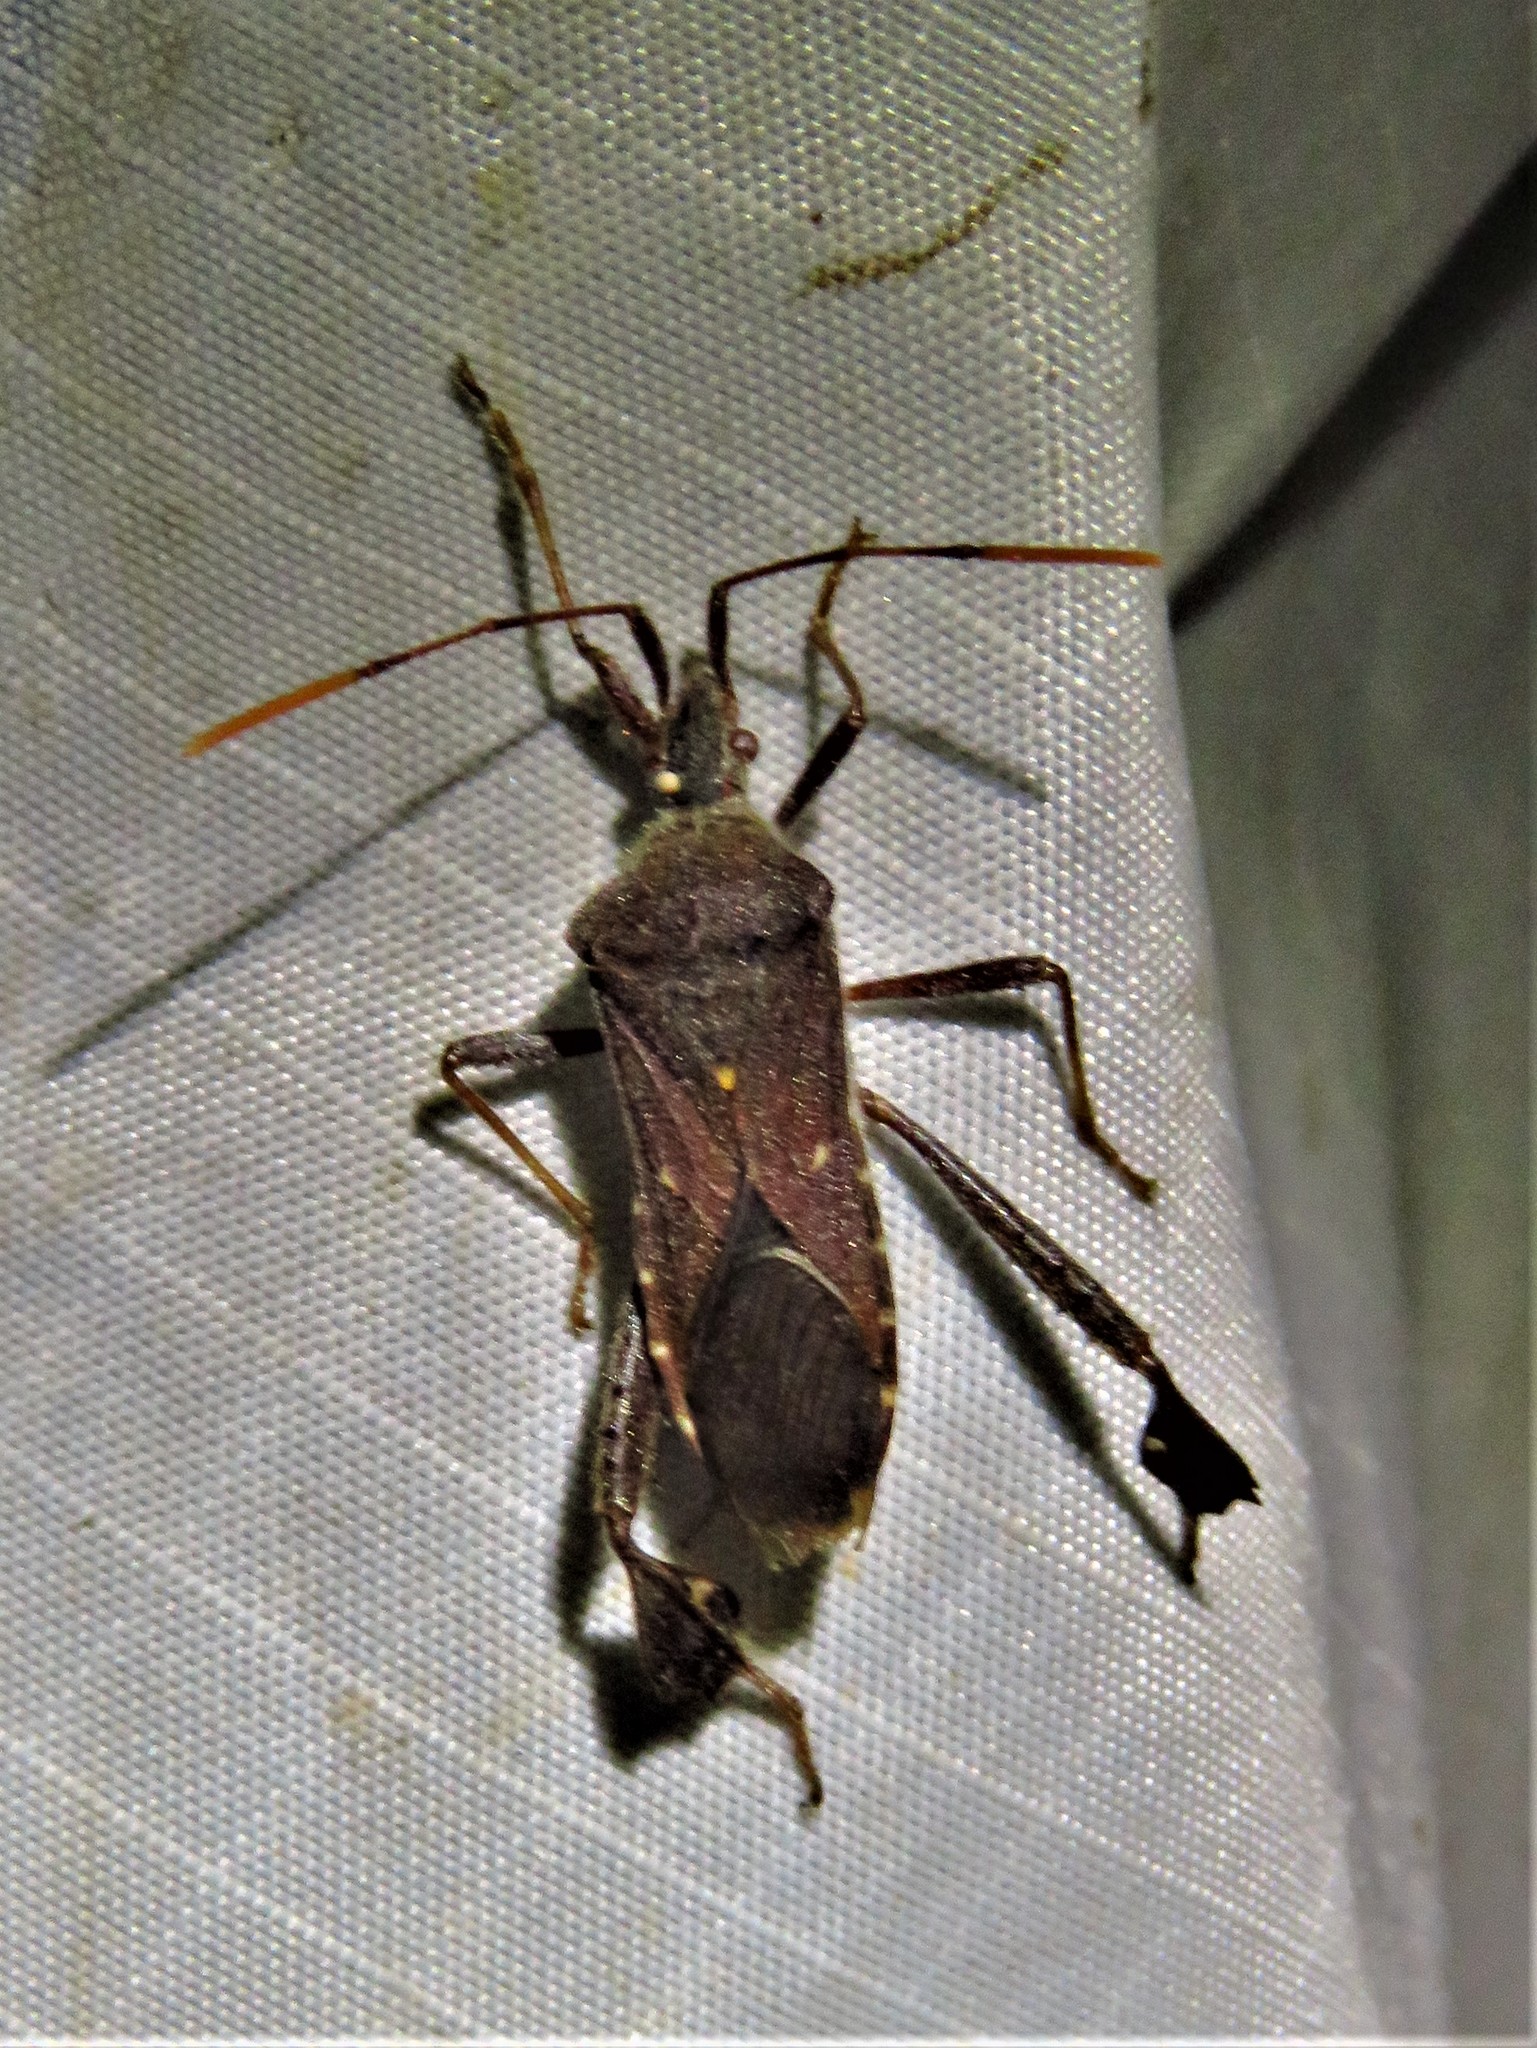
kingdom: Animalia
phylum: Arthropoda
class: Insecta
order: Hemiptera
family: Coreidae
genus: Leptoglossus
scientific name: Leptoglossus oppositus
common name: Northern leaf-footed bug
